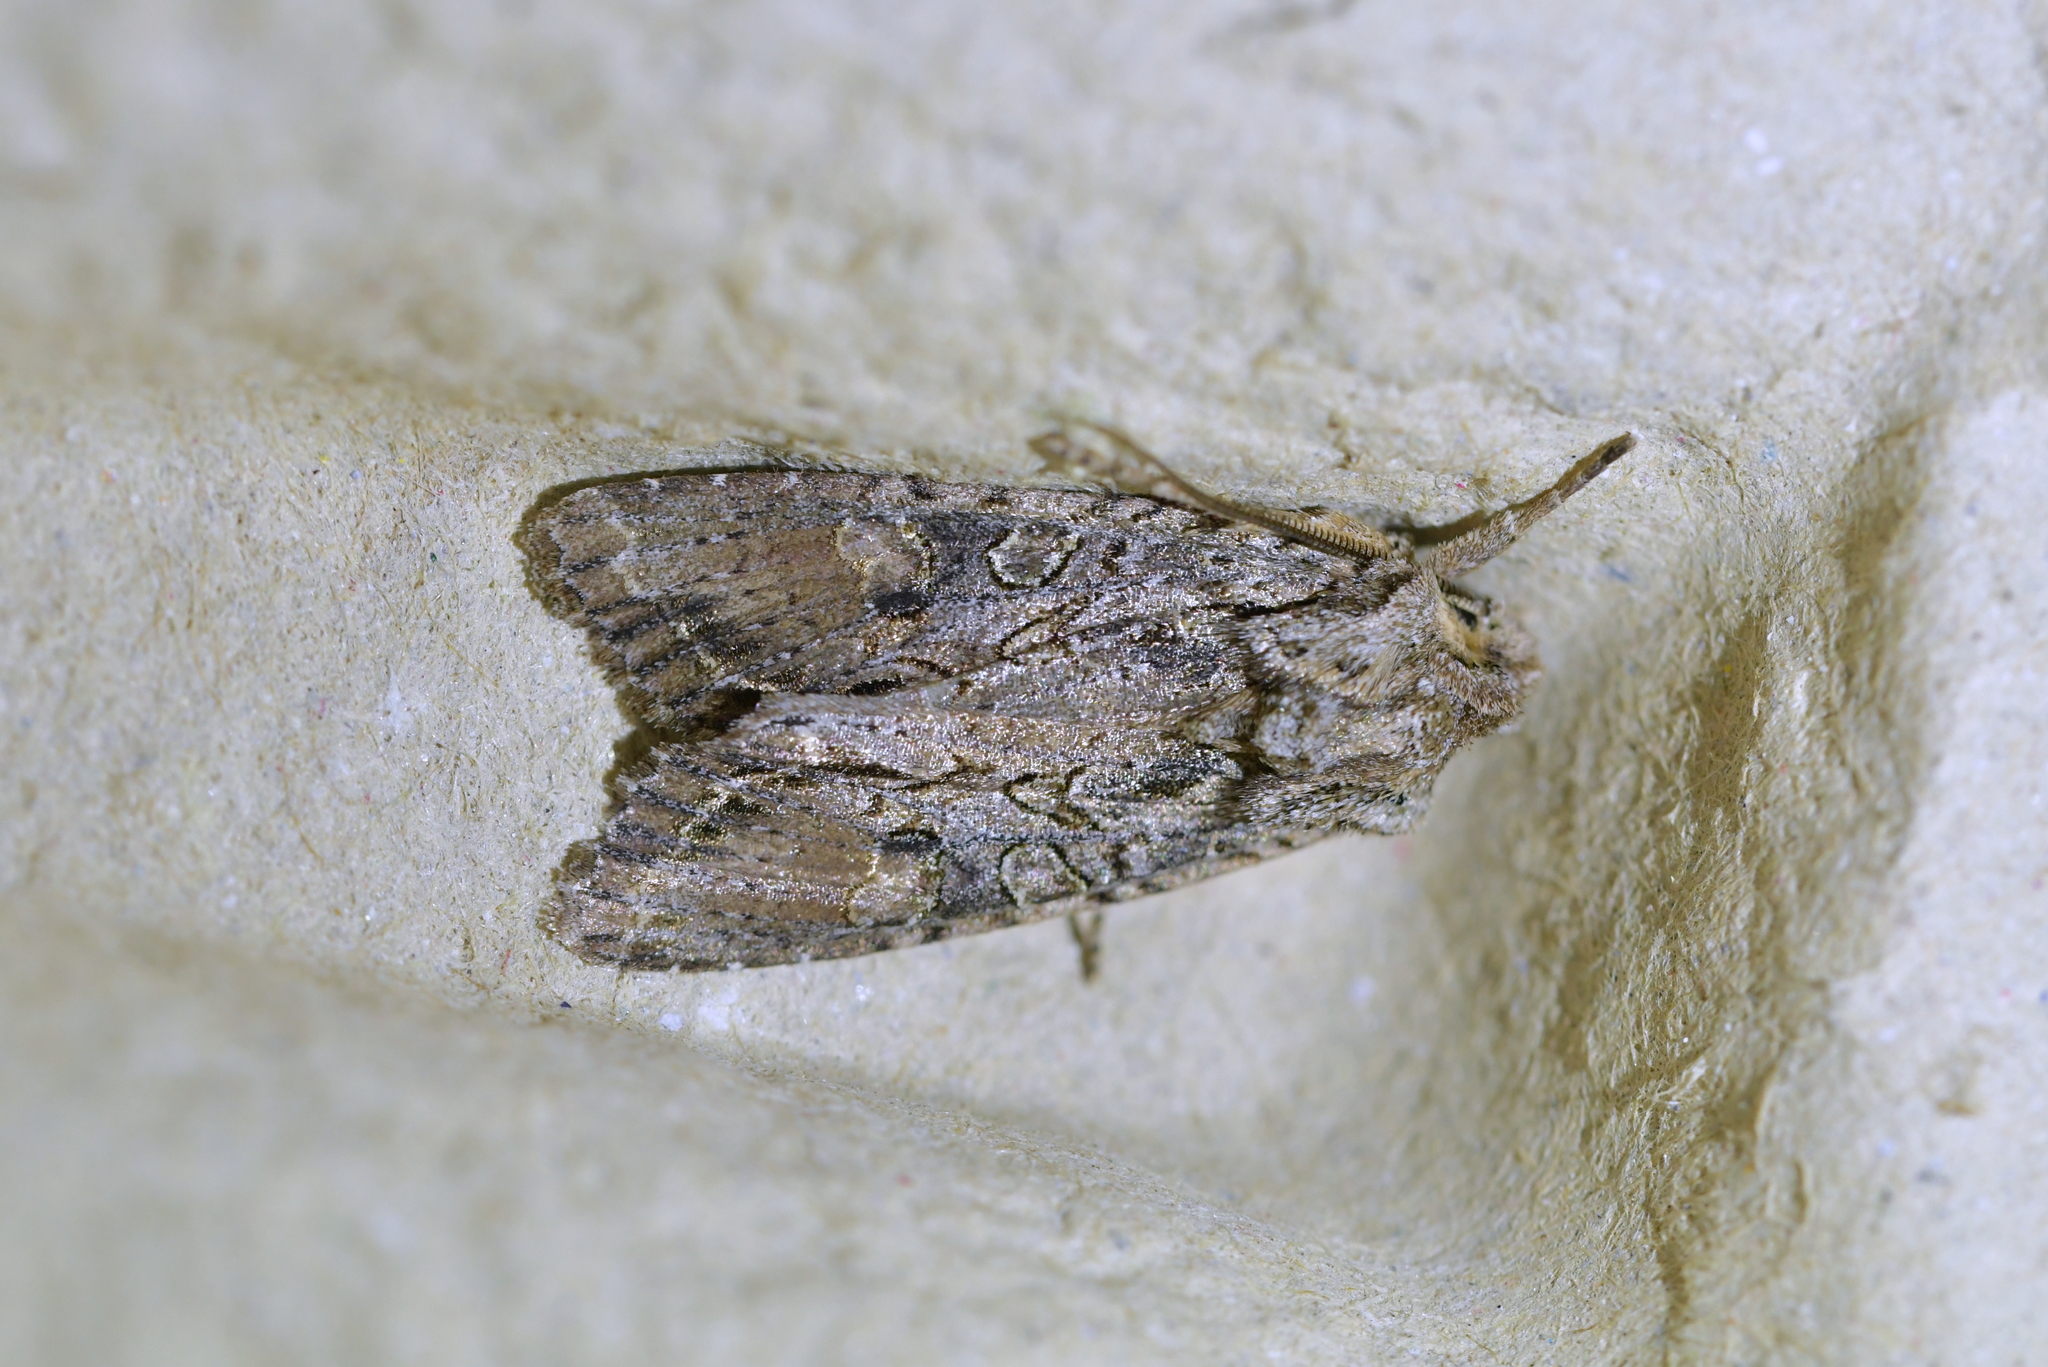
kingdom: Animalia
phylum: Arthropoda
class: Insecta
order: Lepidoptera
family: Noctuidae
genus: Ichneutica
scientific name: Ichneutica mutans
